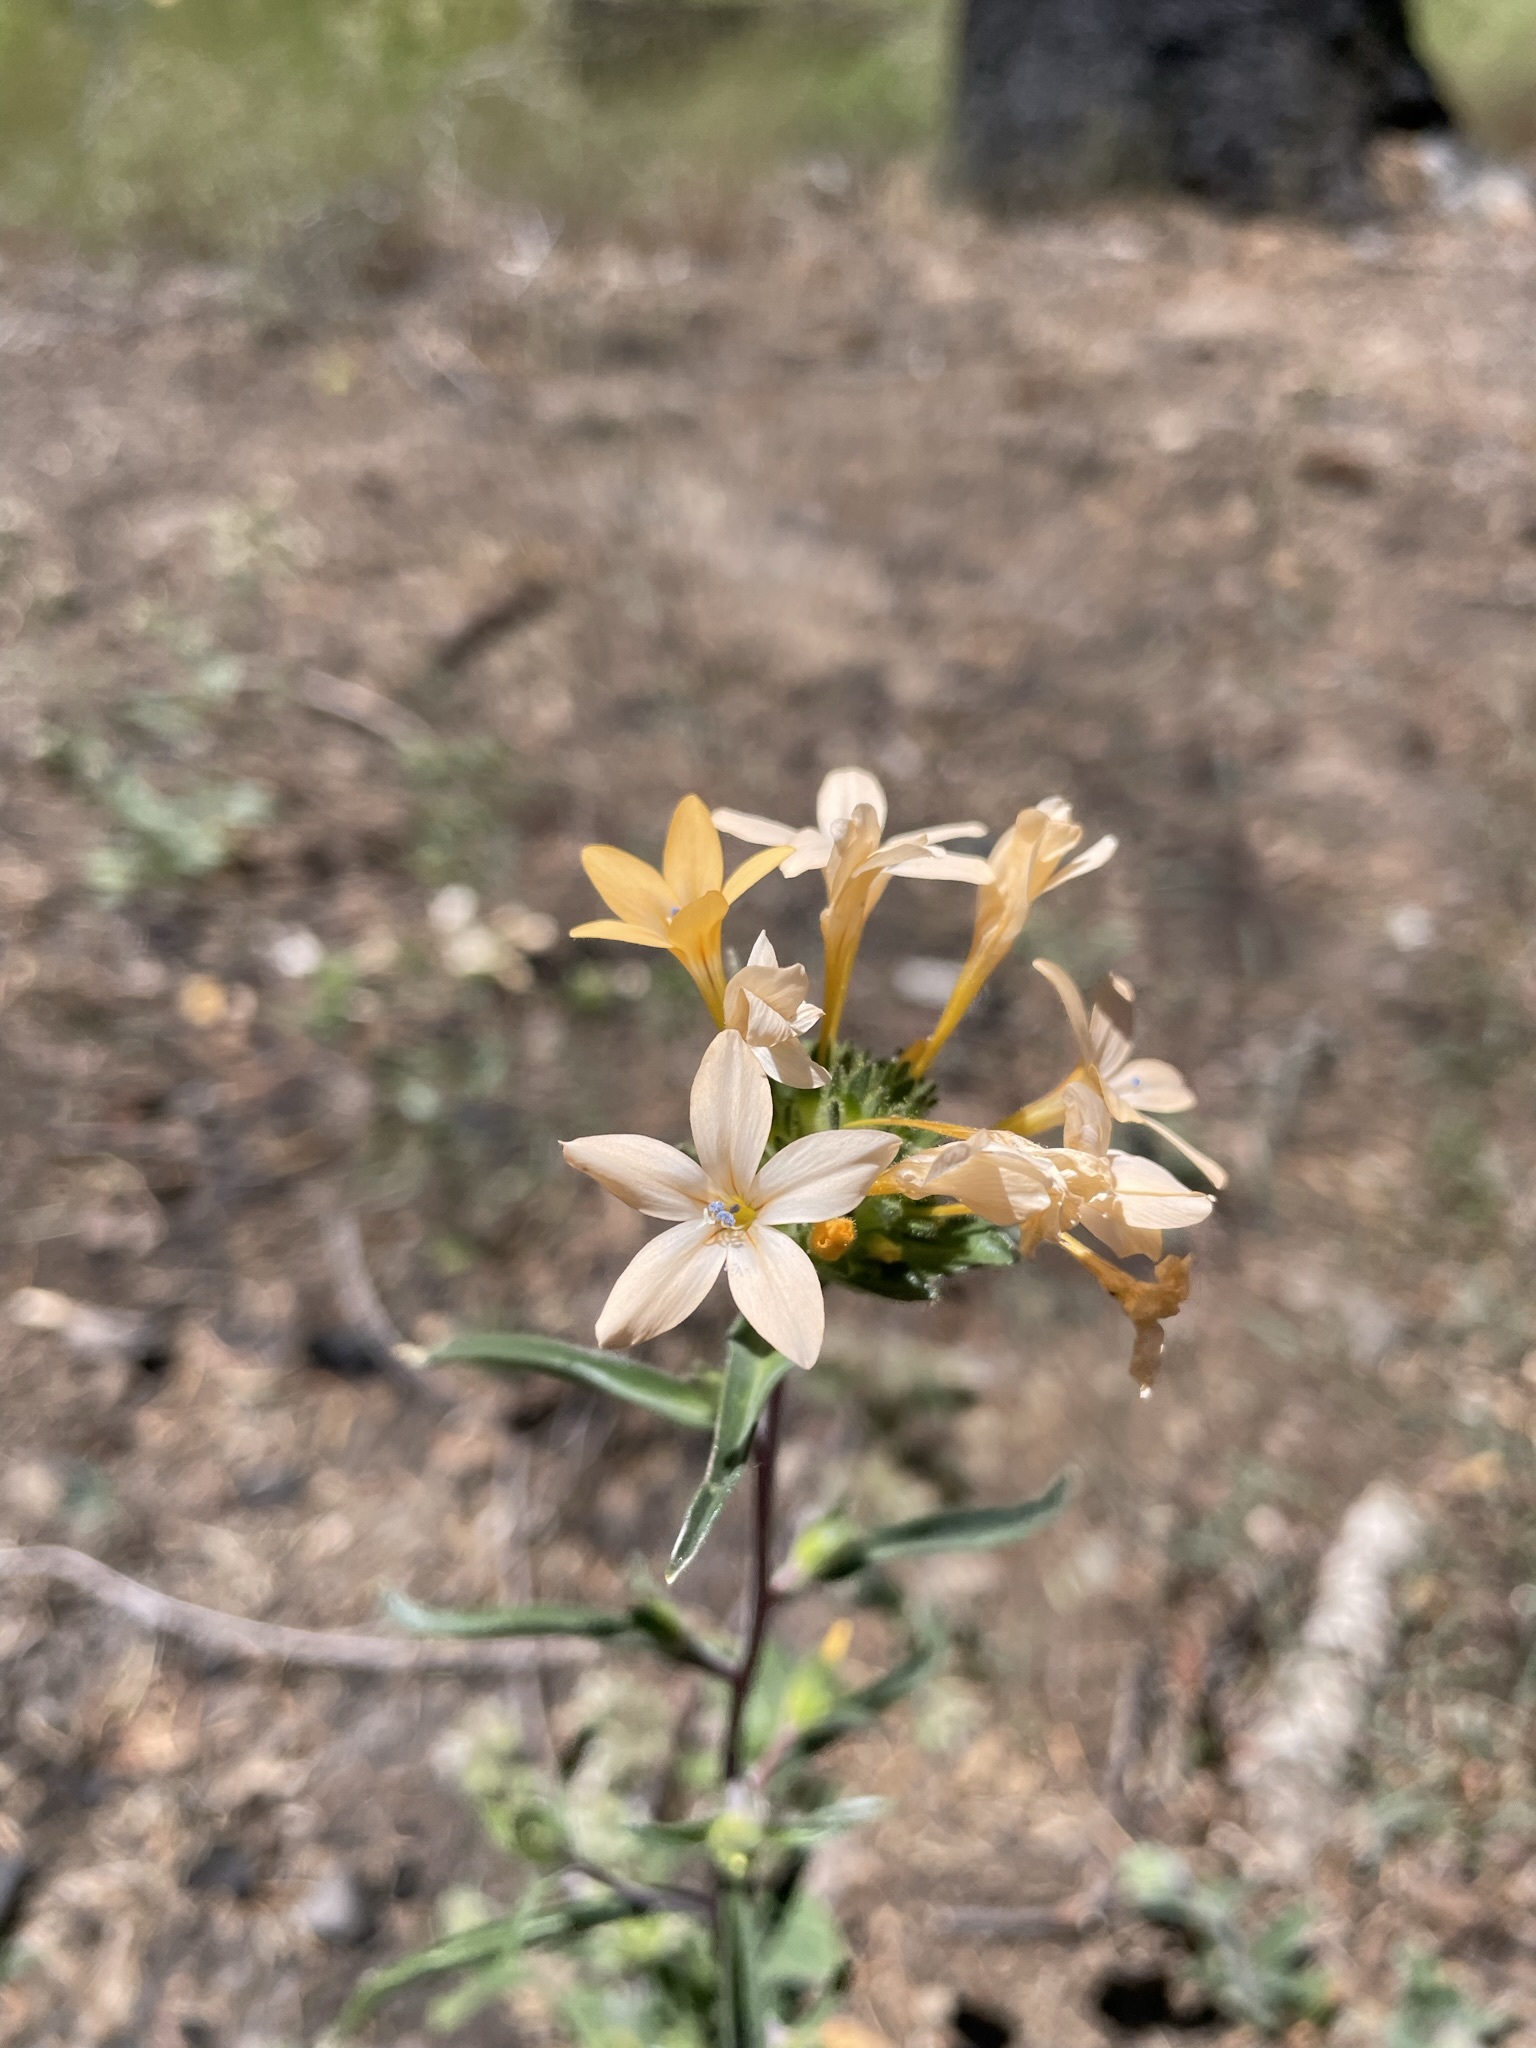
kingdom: Plantae
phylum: Tracheophyta
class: Magnoliopsida
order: Ericales
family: Polemoniaceae
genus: Collomia
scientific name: Collomia grandiflora
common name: California strawflower
